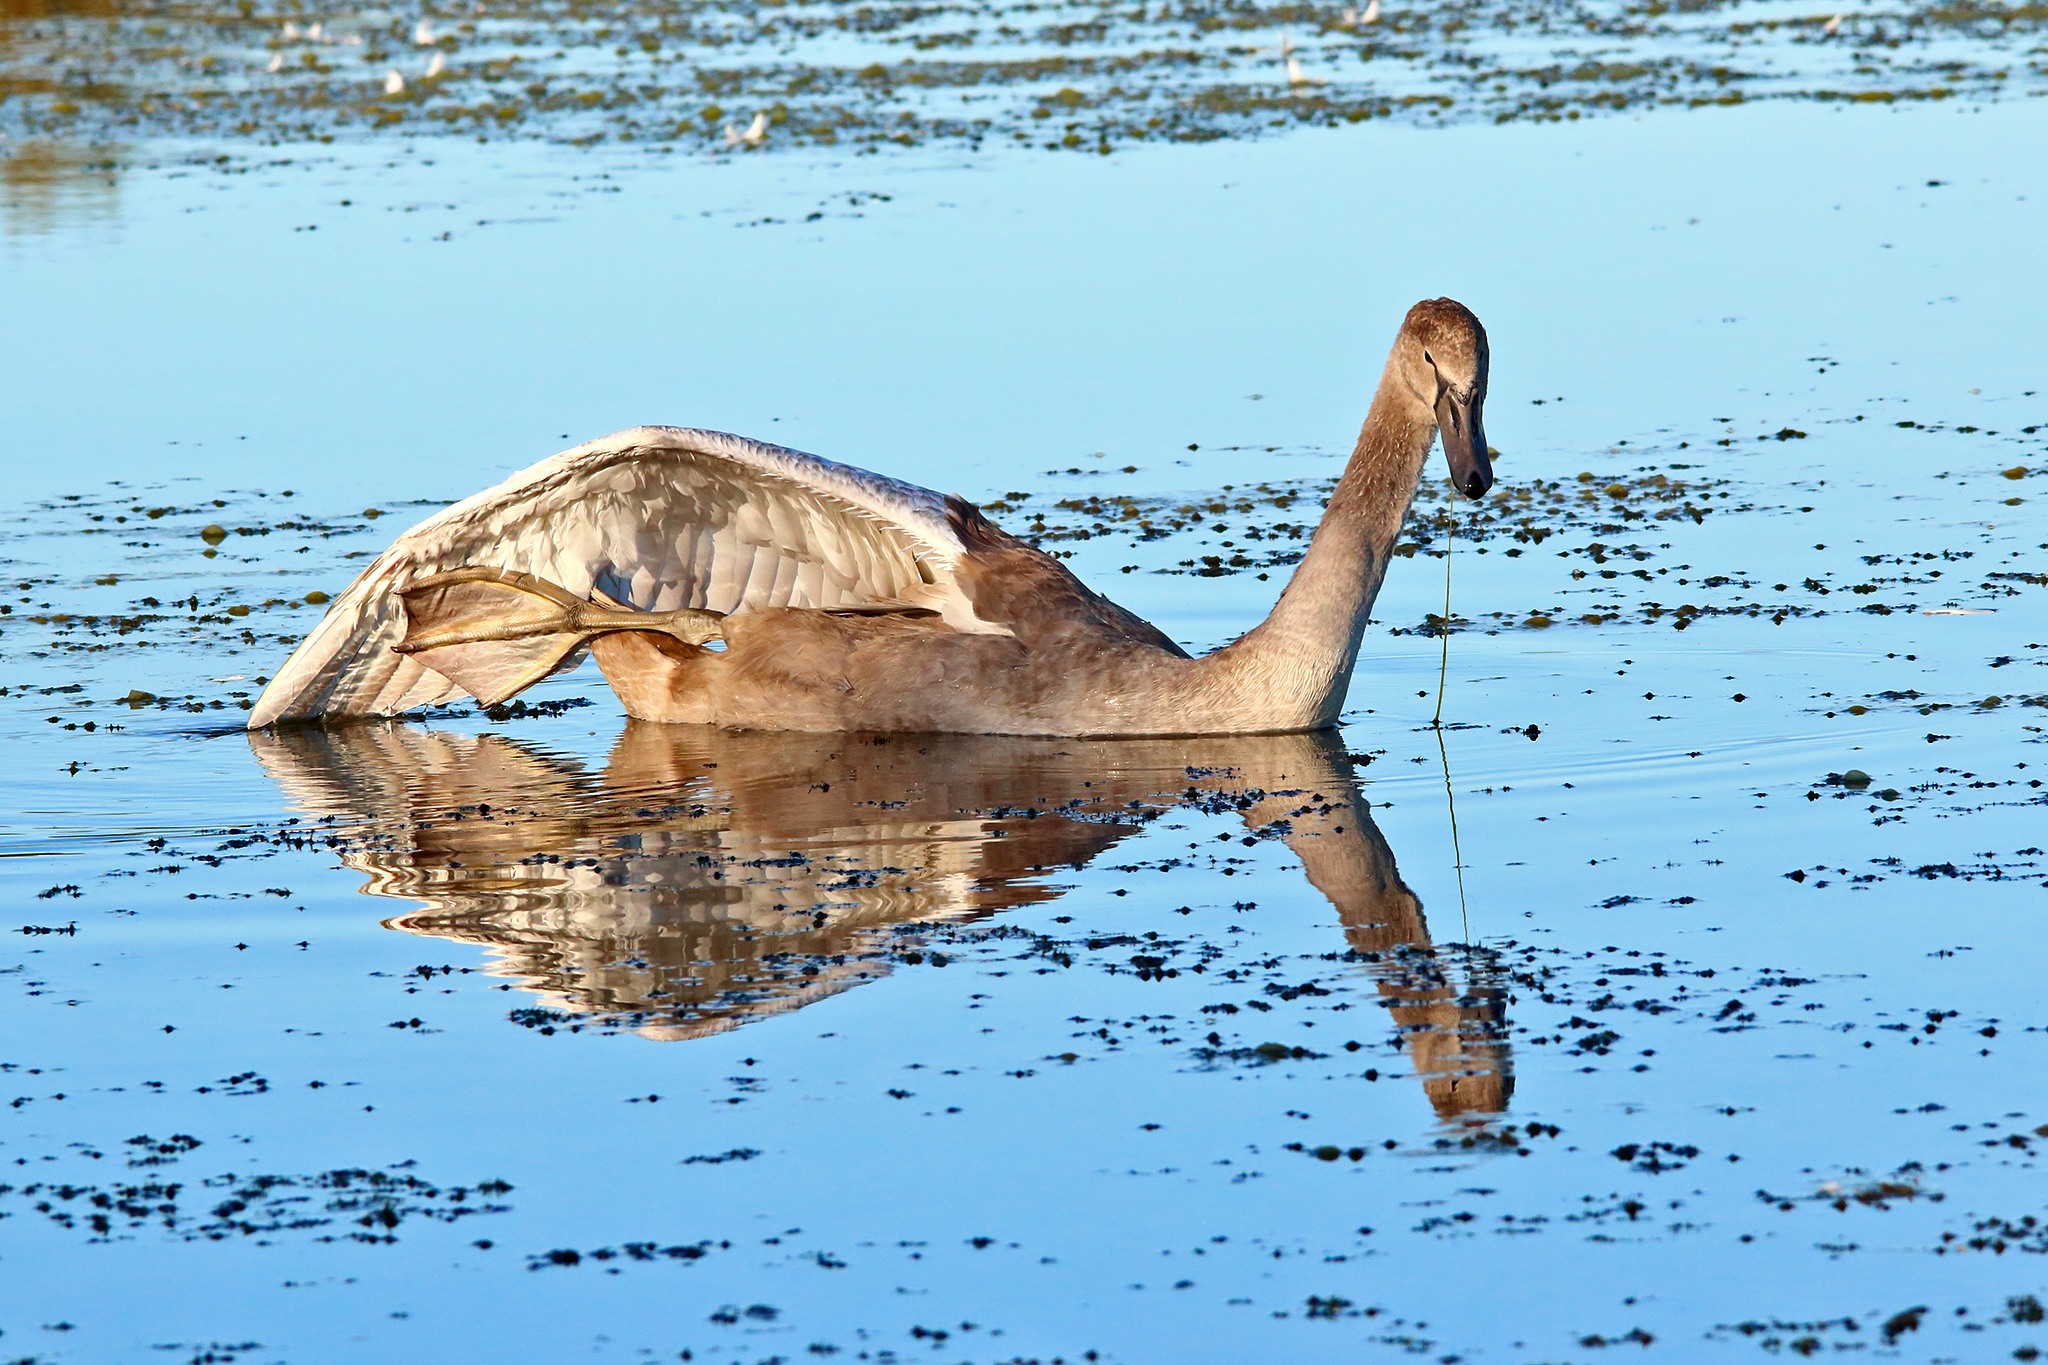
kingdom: Animalia
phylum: Chordata
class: Aves
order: Anseriformes
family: Anatidae
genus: Cygnus
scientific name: Cygnus olor
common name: Mute swan
